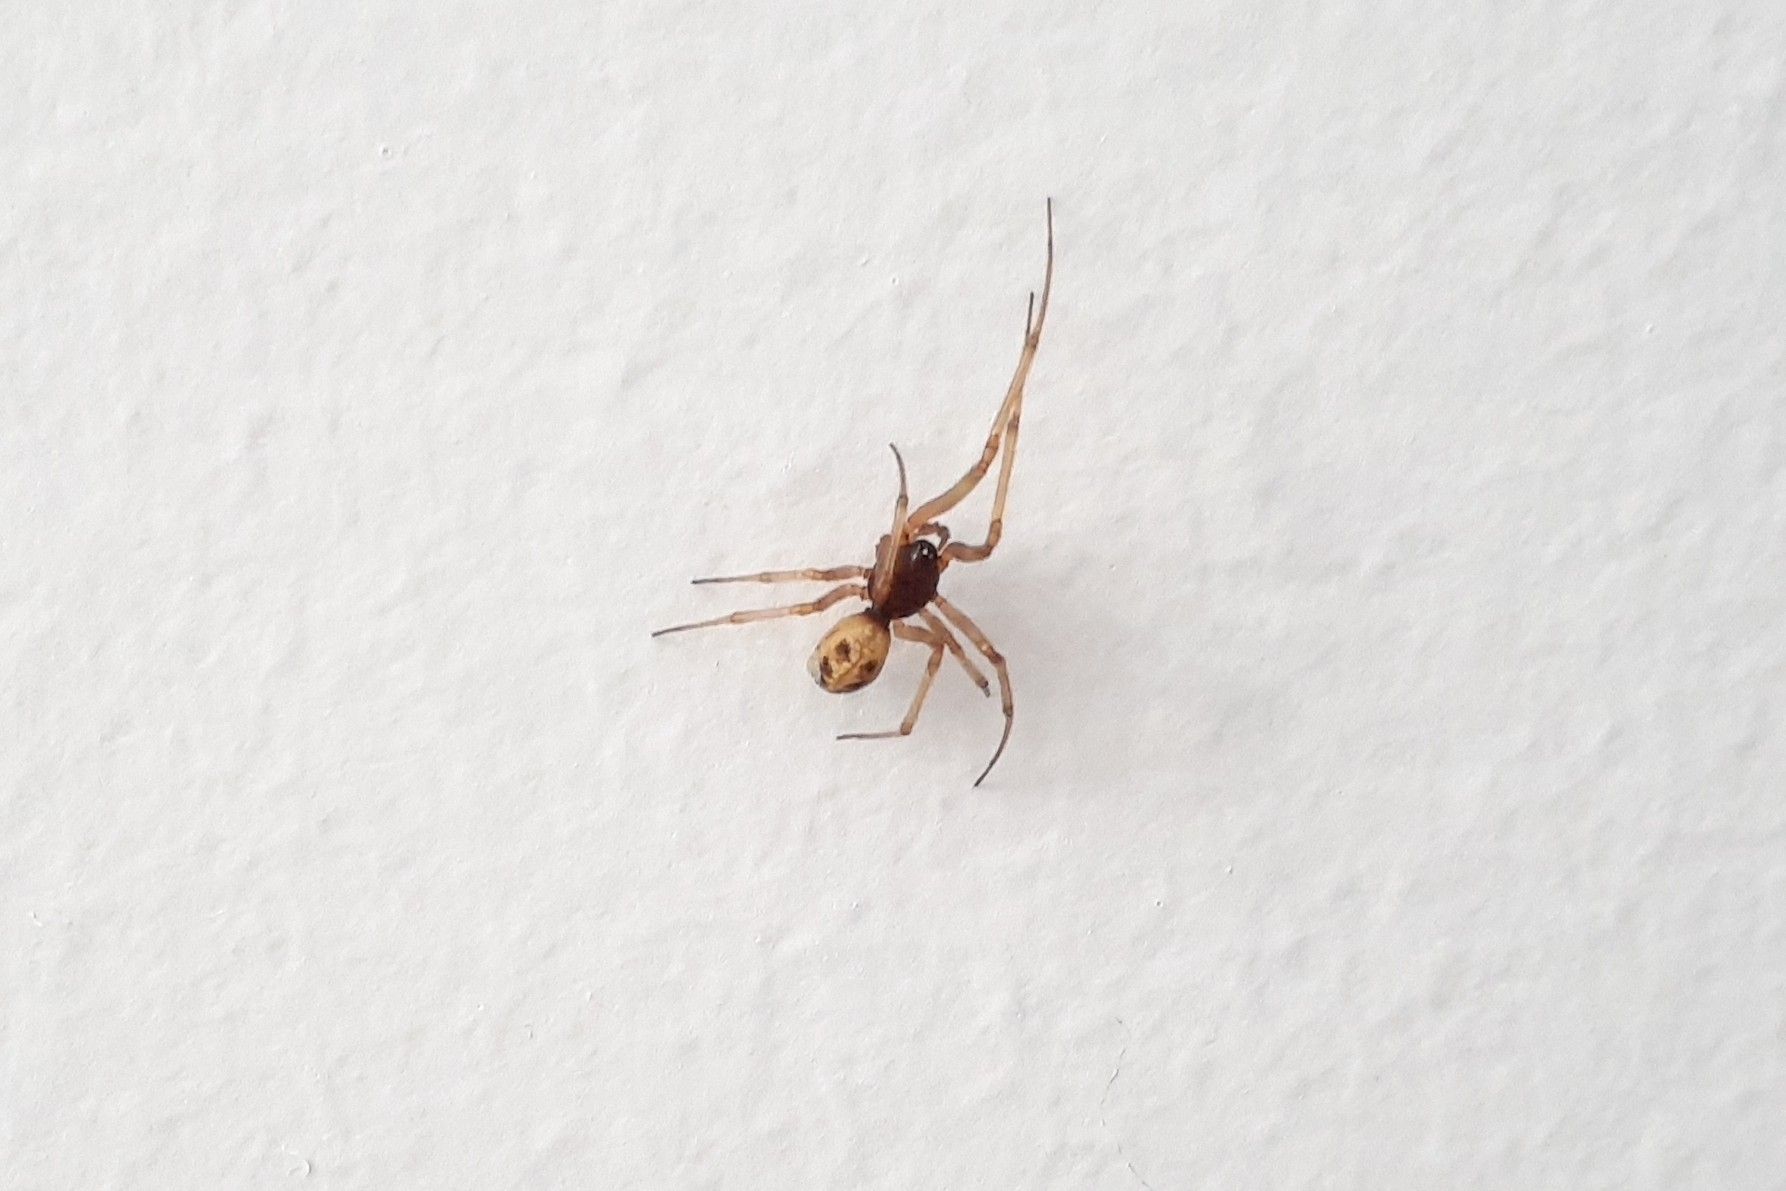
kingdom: Animalia
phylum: Arthropoda
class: Arachnida
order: Araneae
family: Theridiidae
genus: Steatoda
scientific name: Steatoda triangulosa
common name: Triangulate bud spider
